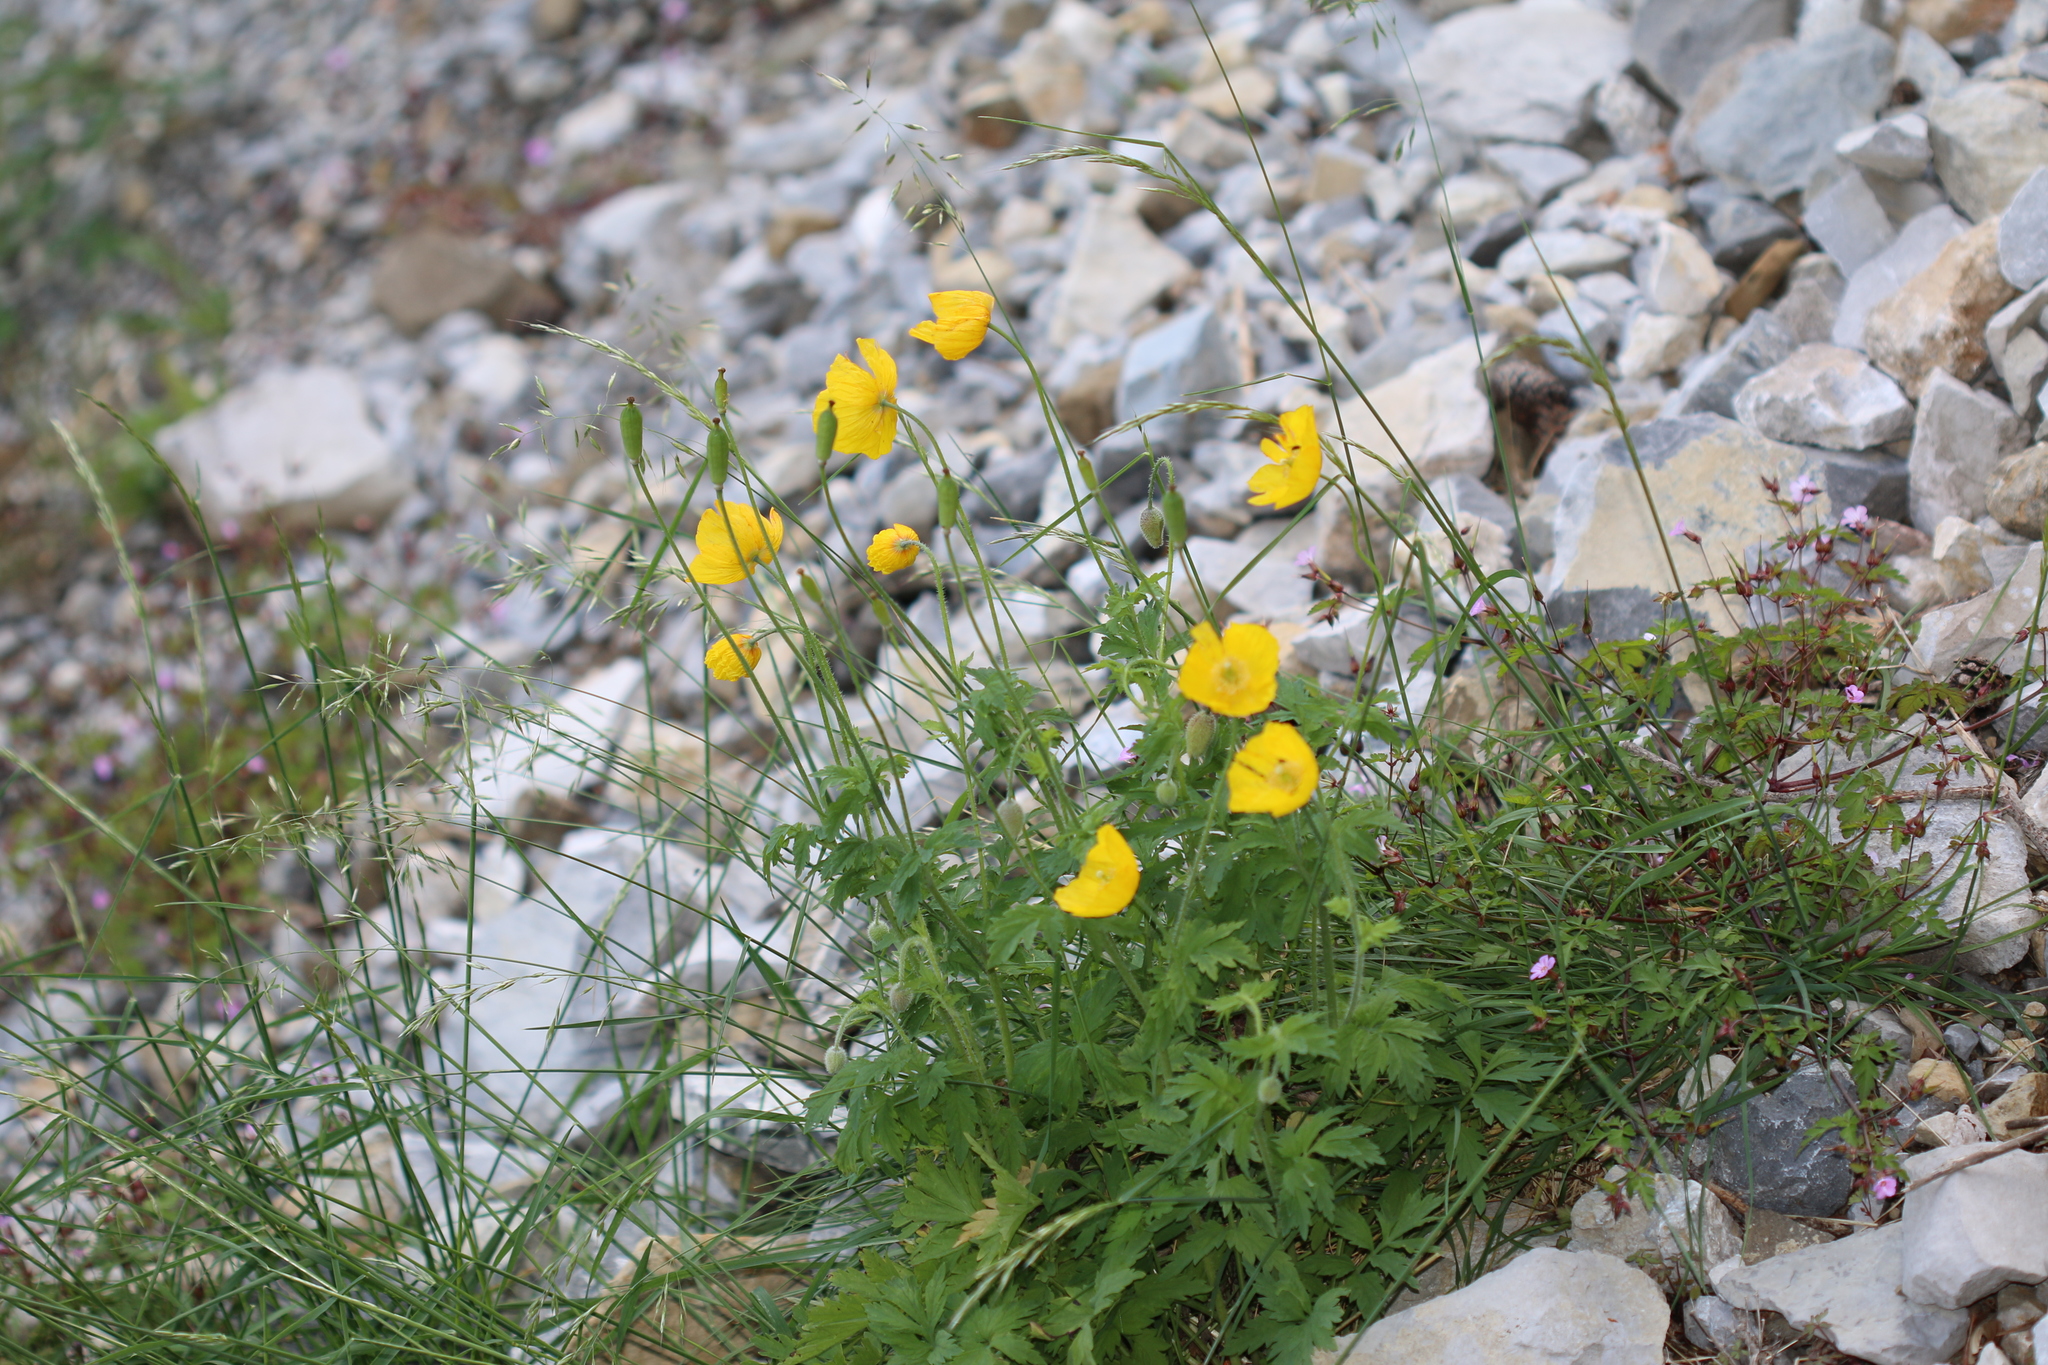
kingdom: Plantae
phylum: Tracheophyta
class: Magnoliopsida
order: Ranunculales
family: Papaveraceae
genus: Papaver
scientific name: Papaver cambricum
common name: Poppy
